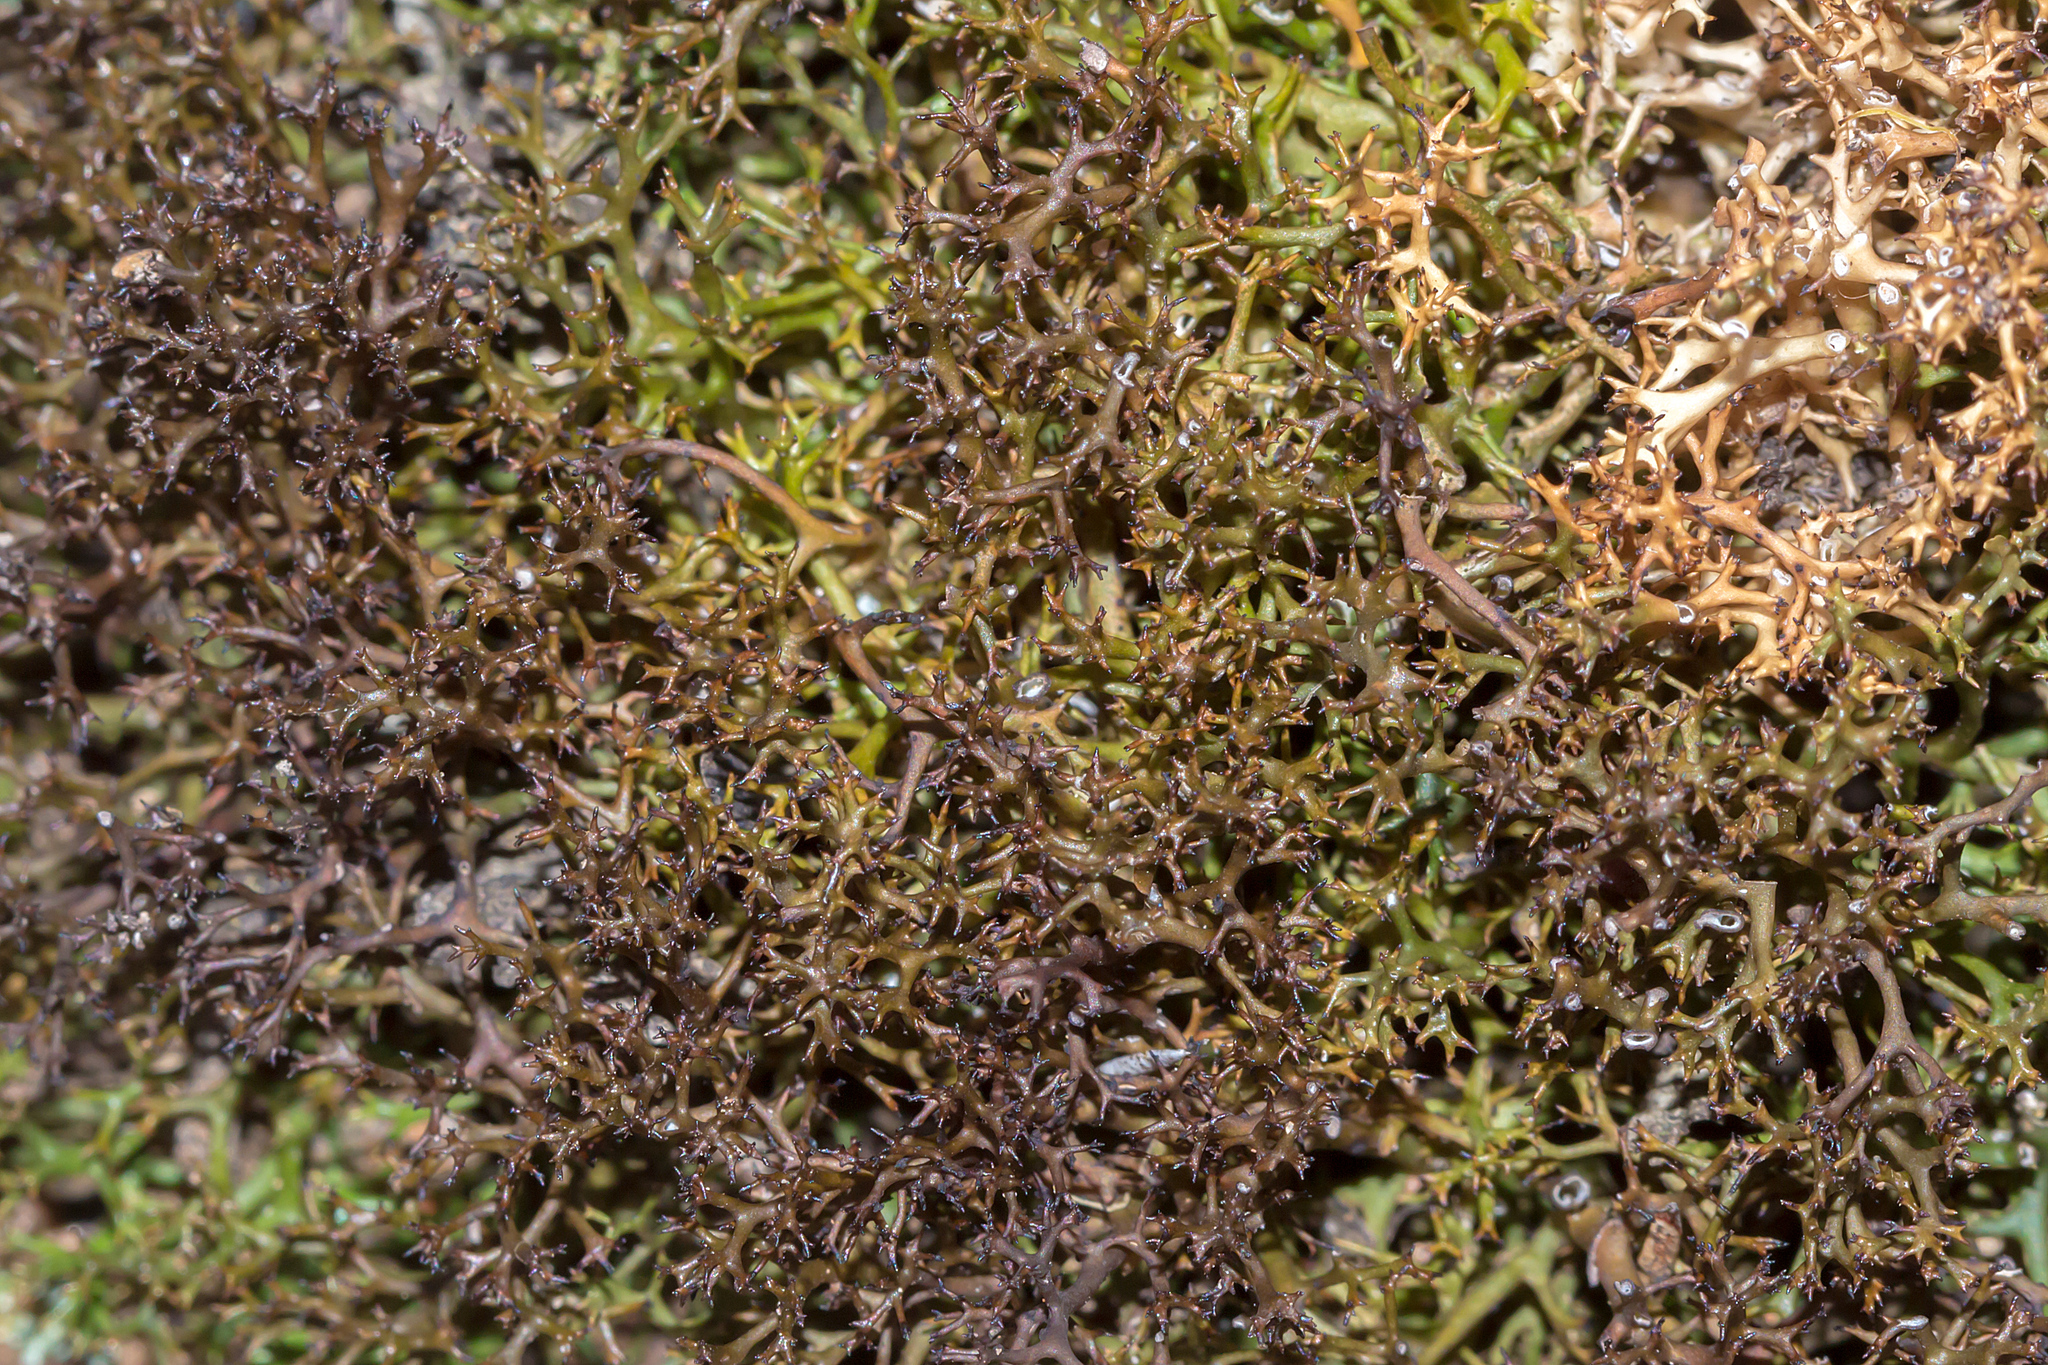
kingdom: Fungi
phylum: Ascomycota
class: Lecanoromycetes
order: Lecanorales
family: Cladoniaceae
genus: Cladia
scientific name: Cladia aggregata
